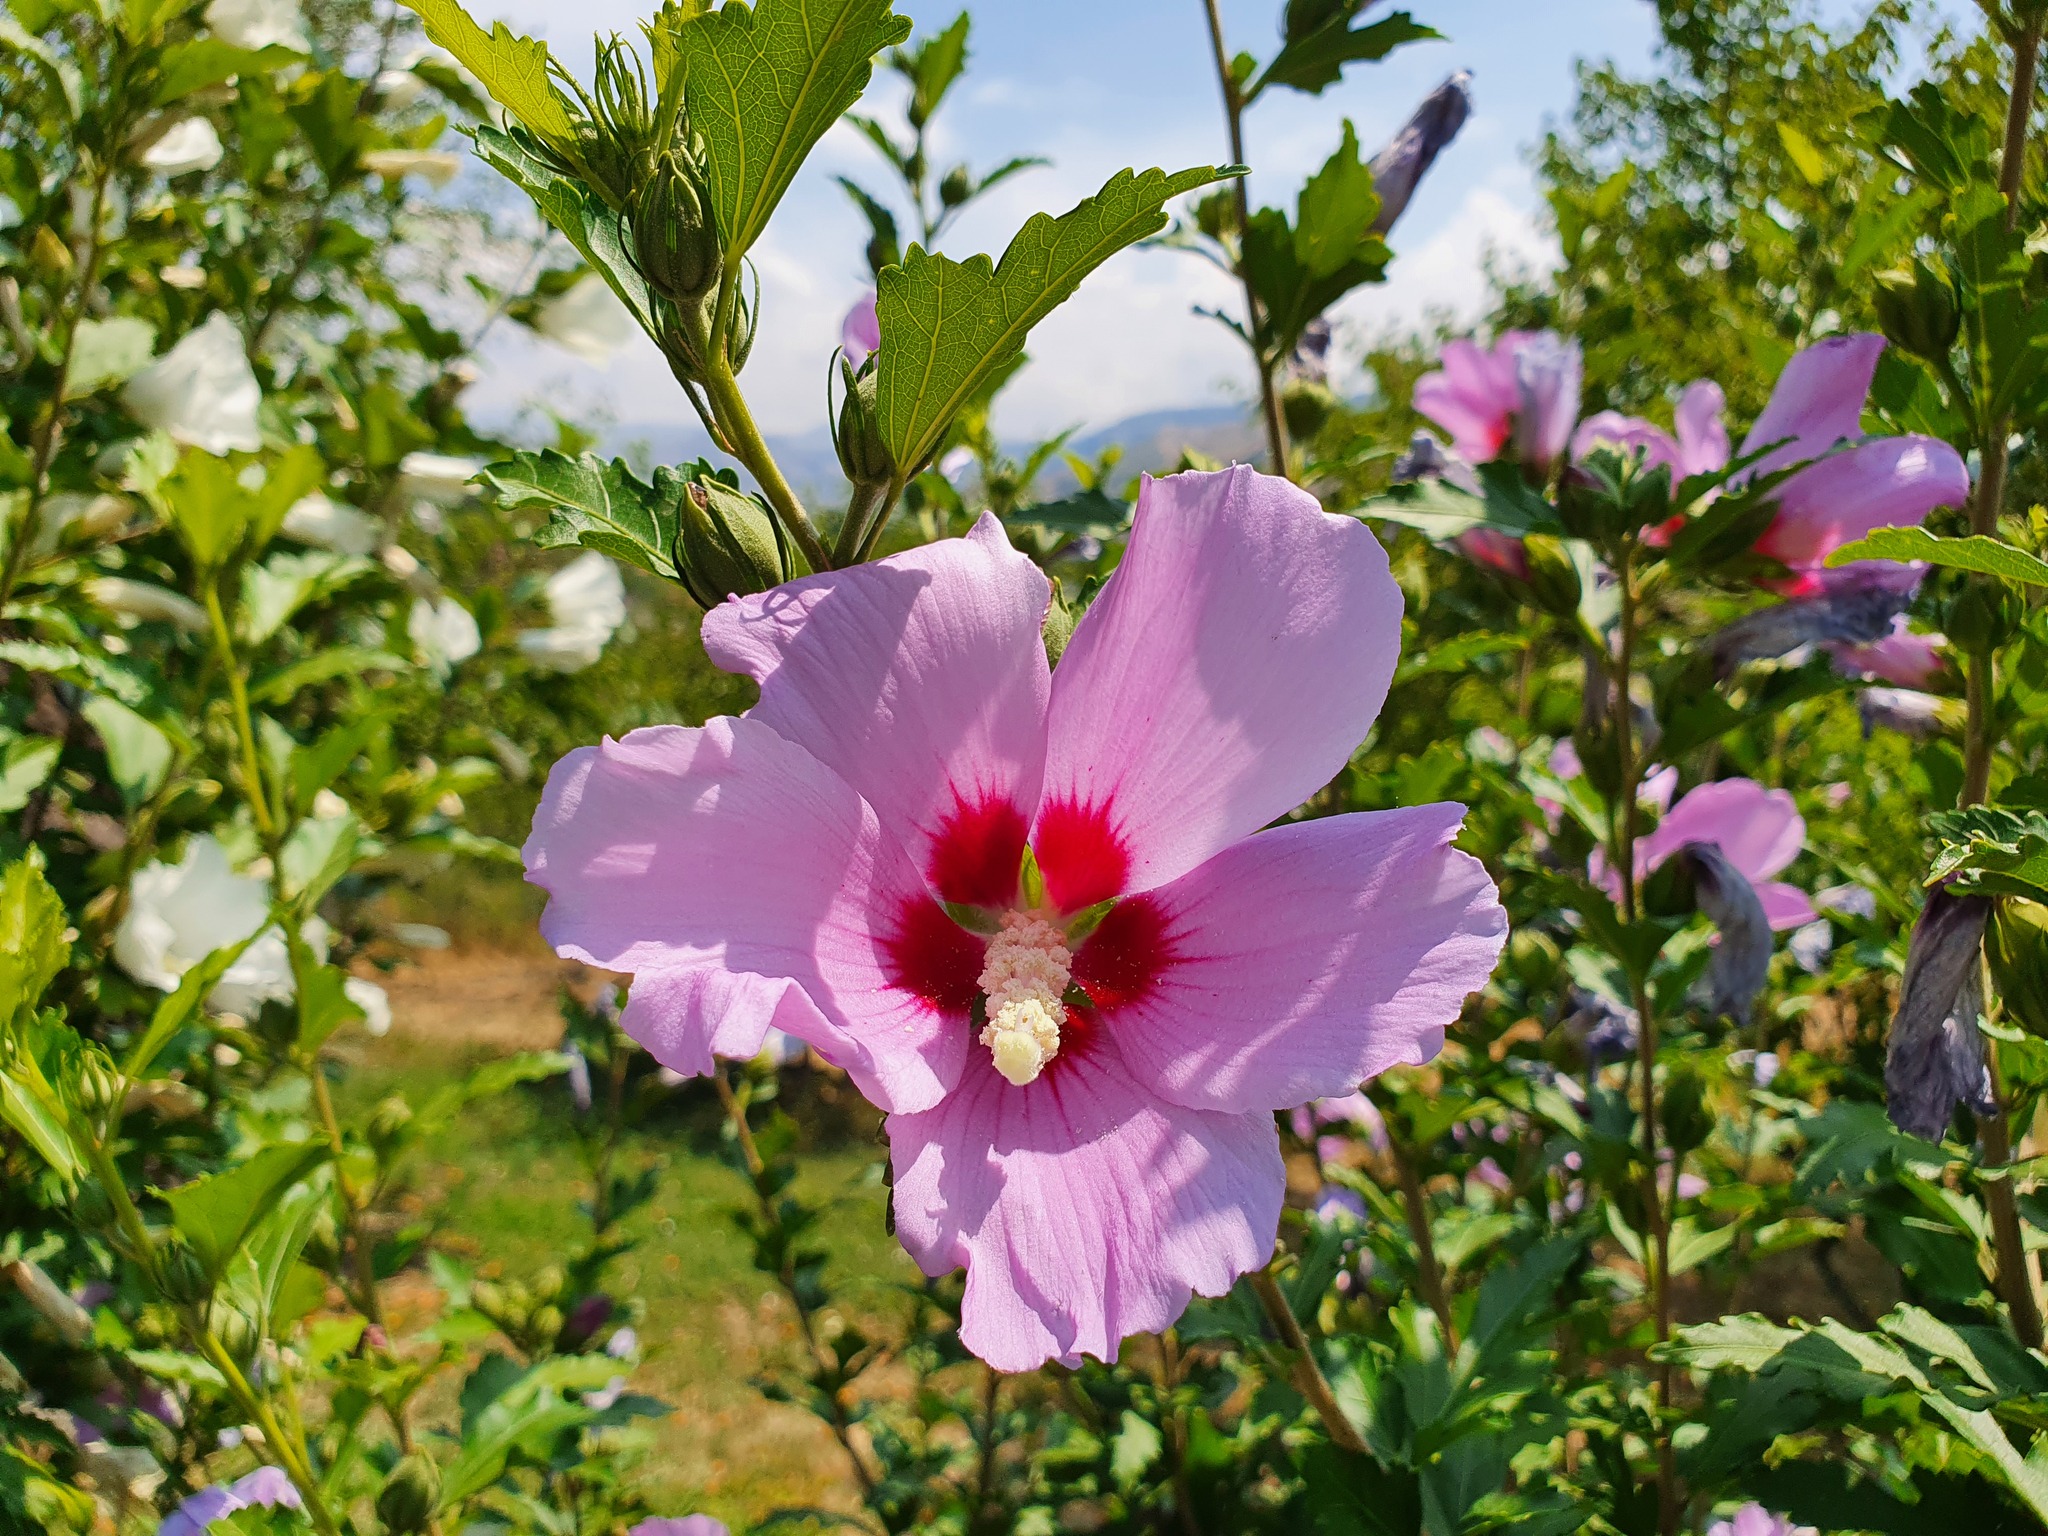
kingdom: Plantae
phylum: Tracheophyta
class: Magnoliopsida
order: Malvales
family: Malvaceae
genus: Hibiscus
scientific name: Hibiscus syriacus
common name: Syrian ketmia
